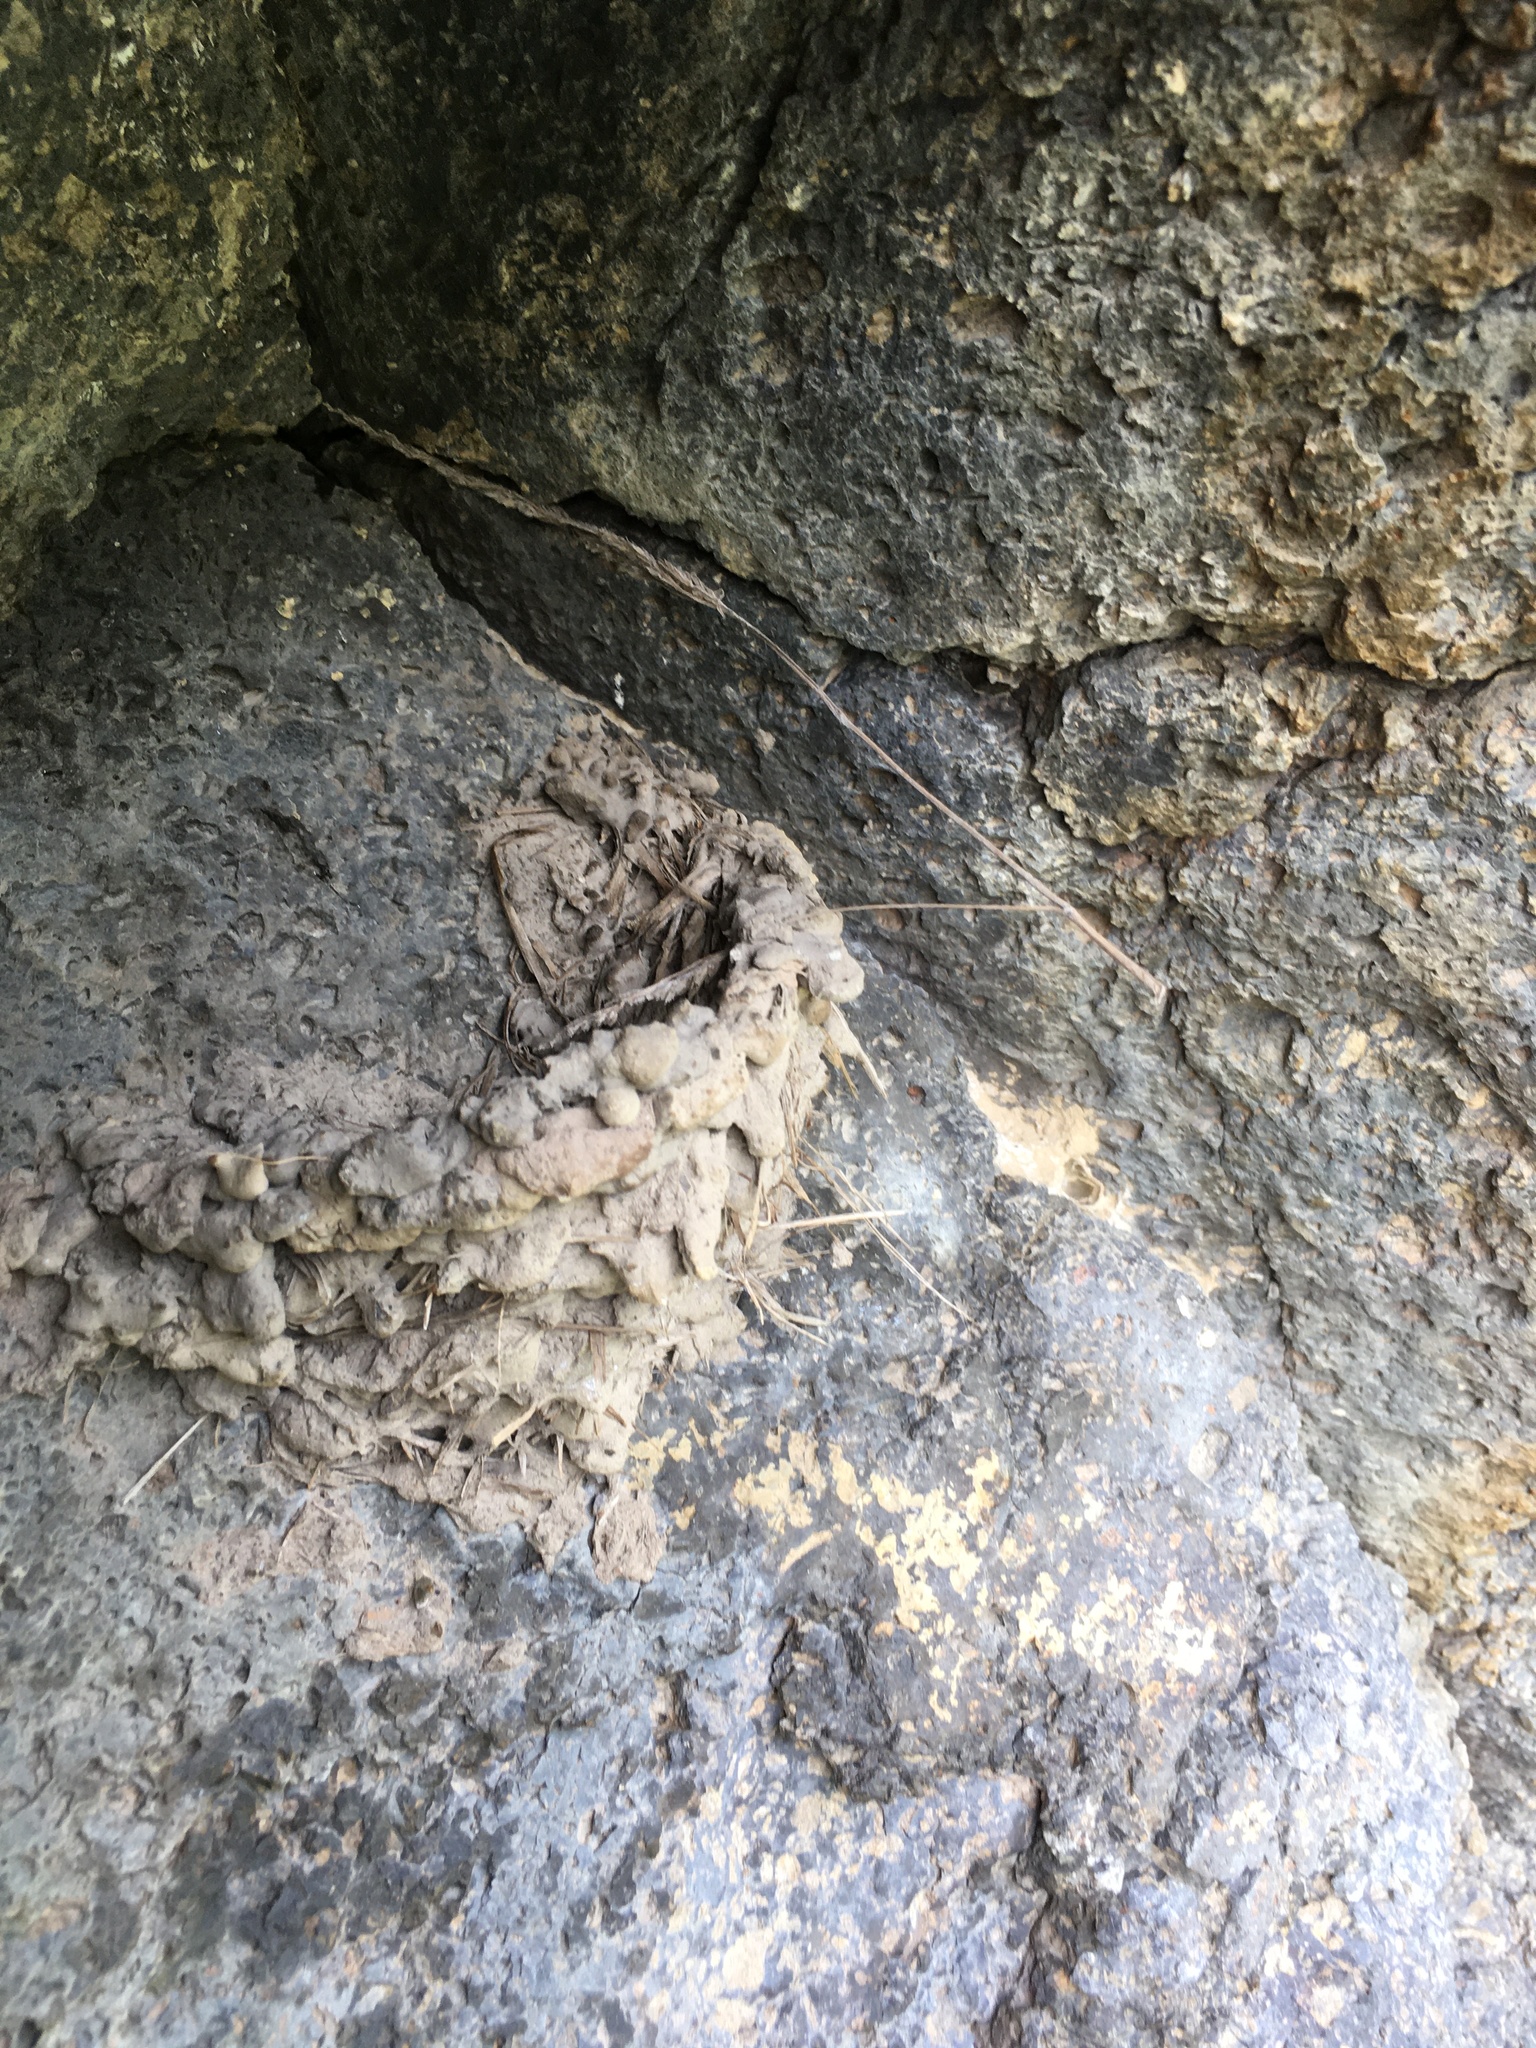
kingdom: Animalia
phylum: Chordata
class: Aves
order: Passeriformes
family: Hirundinidae
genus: Hirundo
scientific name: Hirundo neoxena
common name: Welcome swallow
